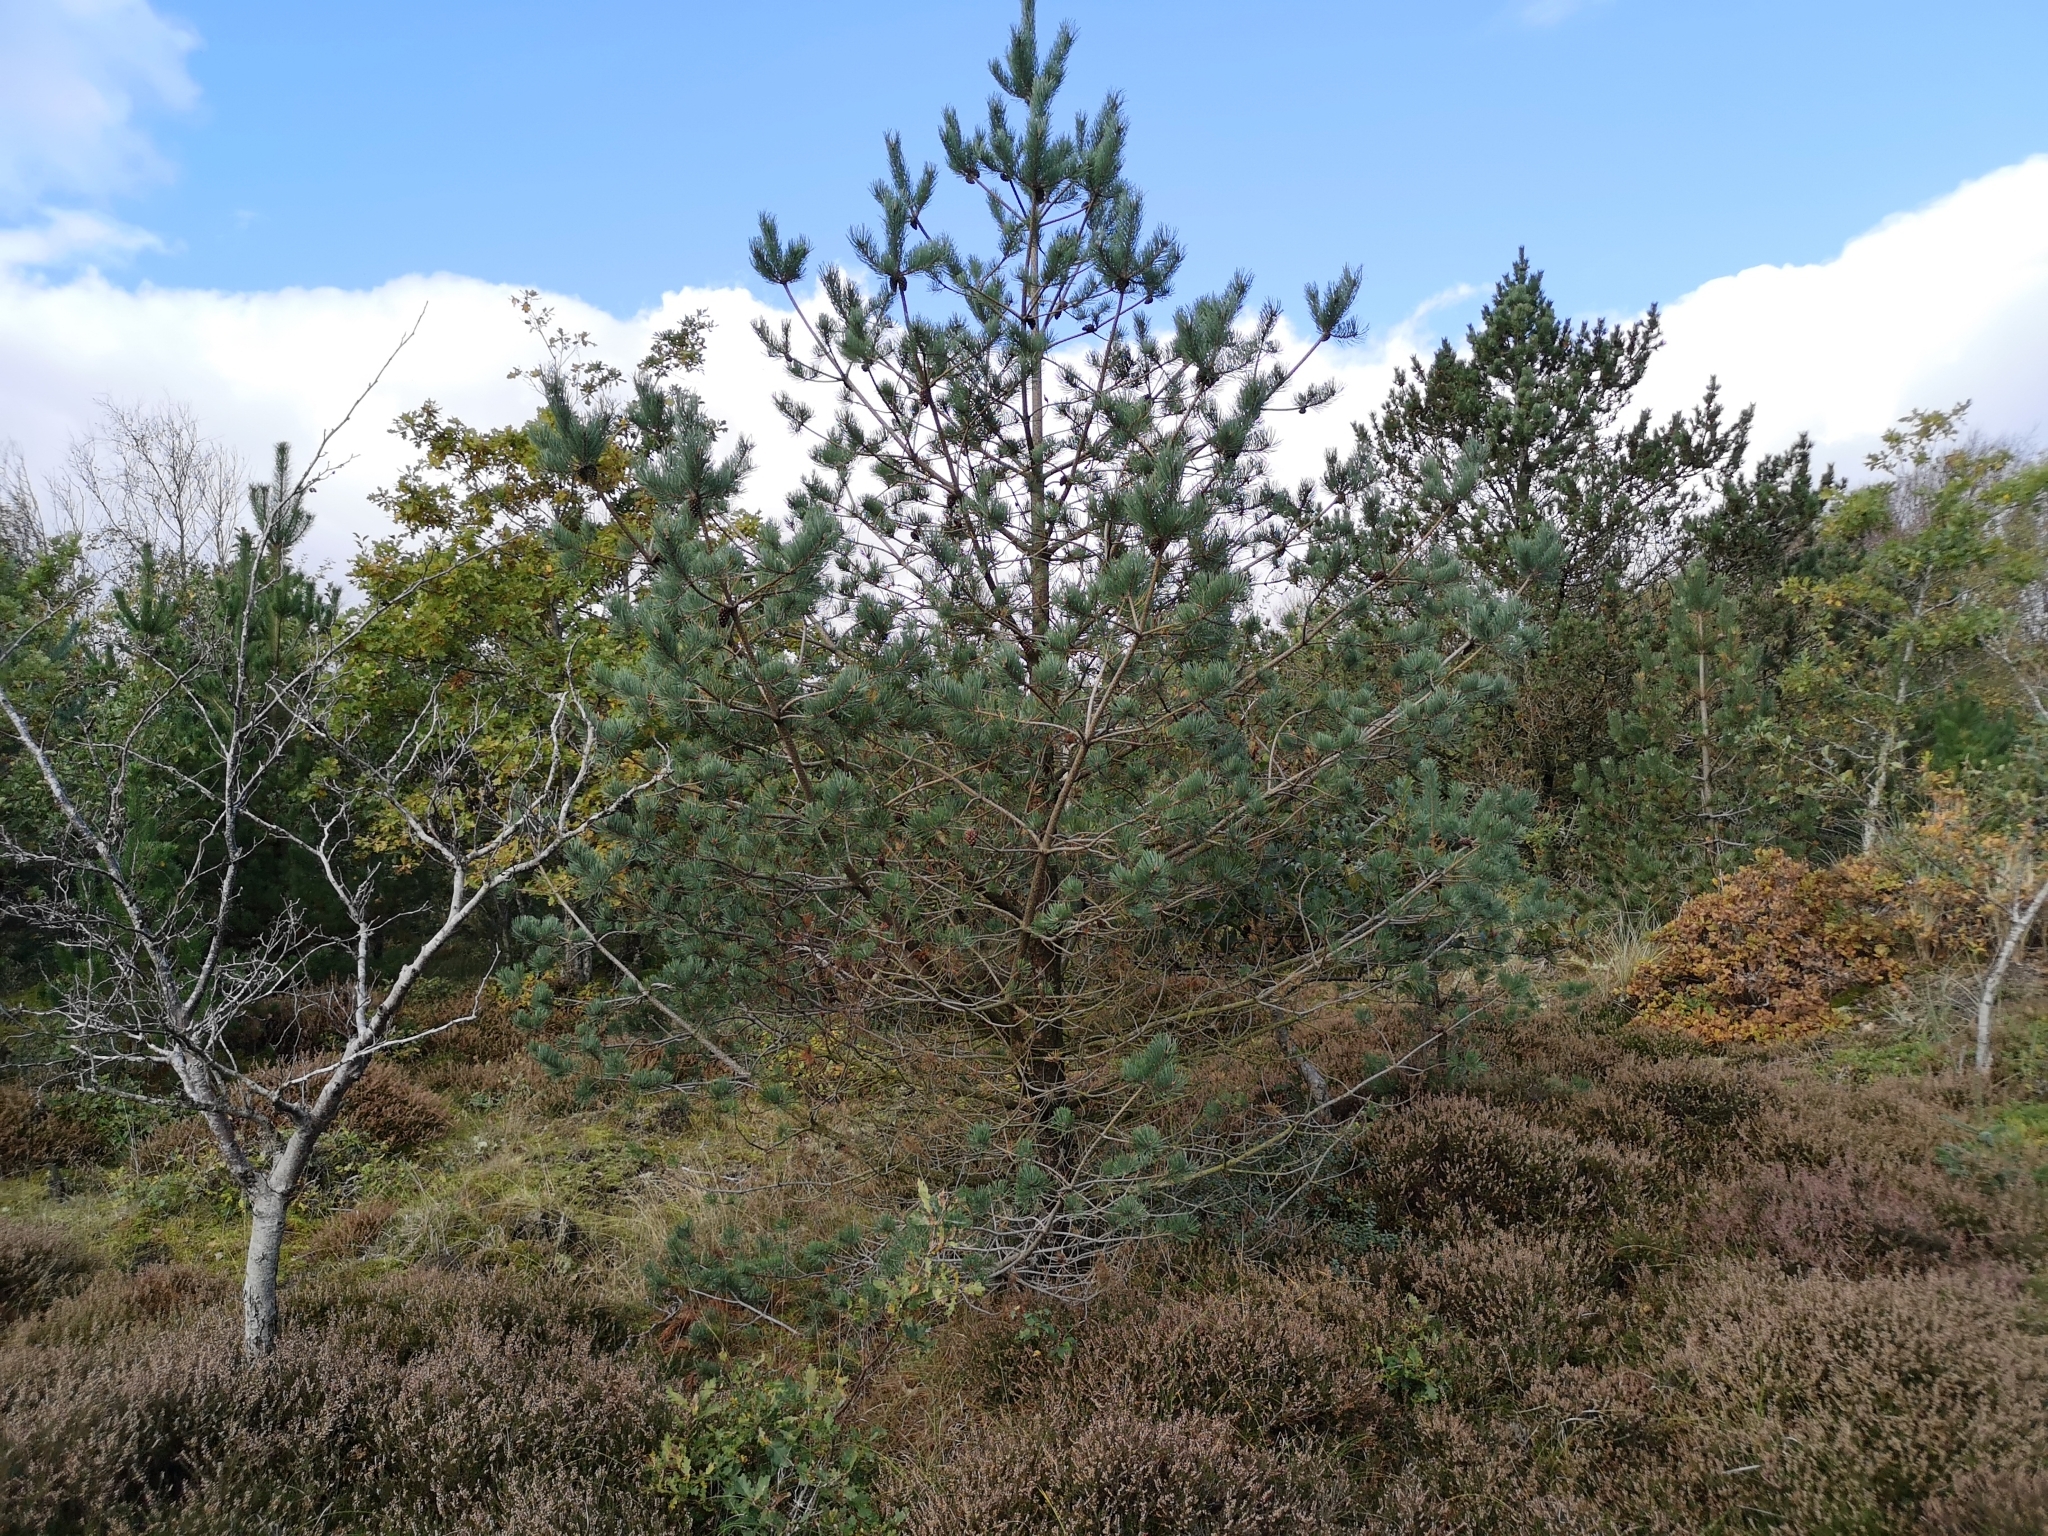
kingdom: Plantae
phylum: Tracheophyta
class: Pinopsida
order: Pinales
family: Pinaceae
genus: Pinus
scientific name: Pinus sylvestris
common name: Scots pine
